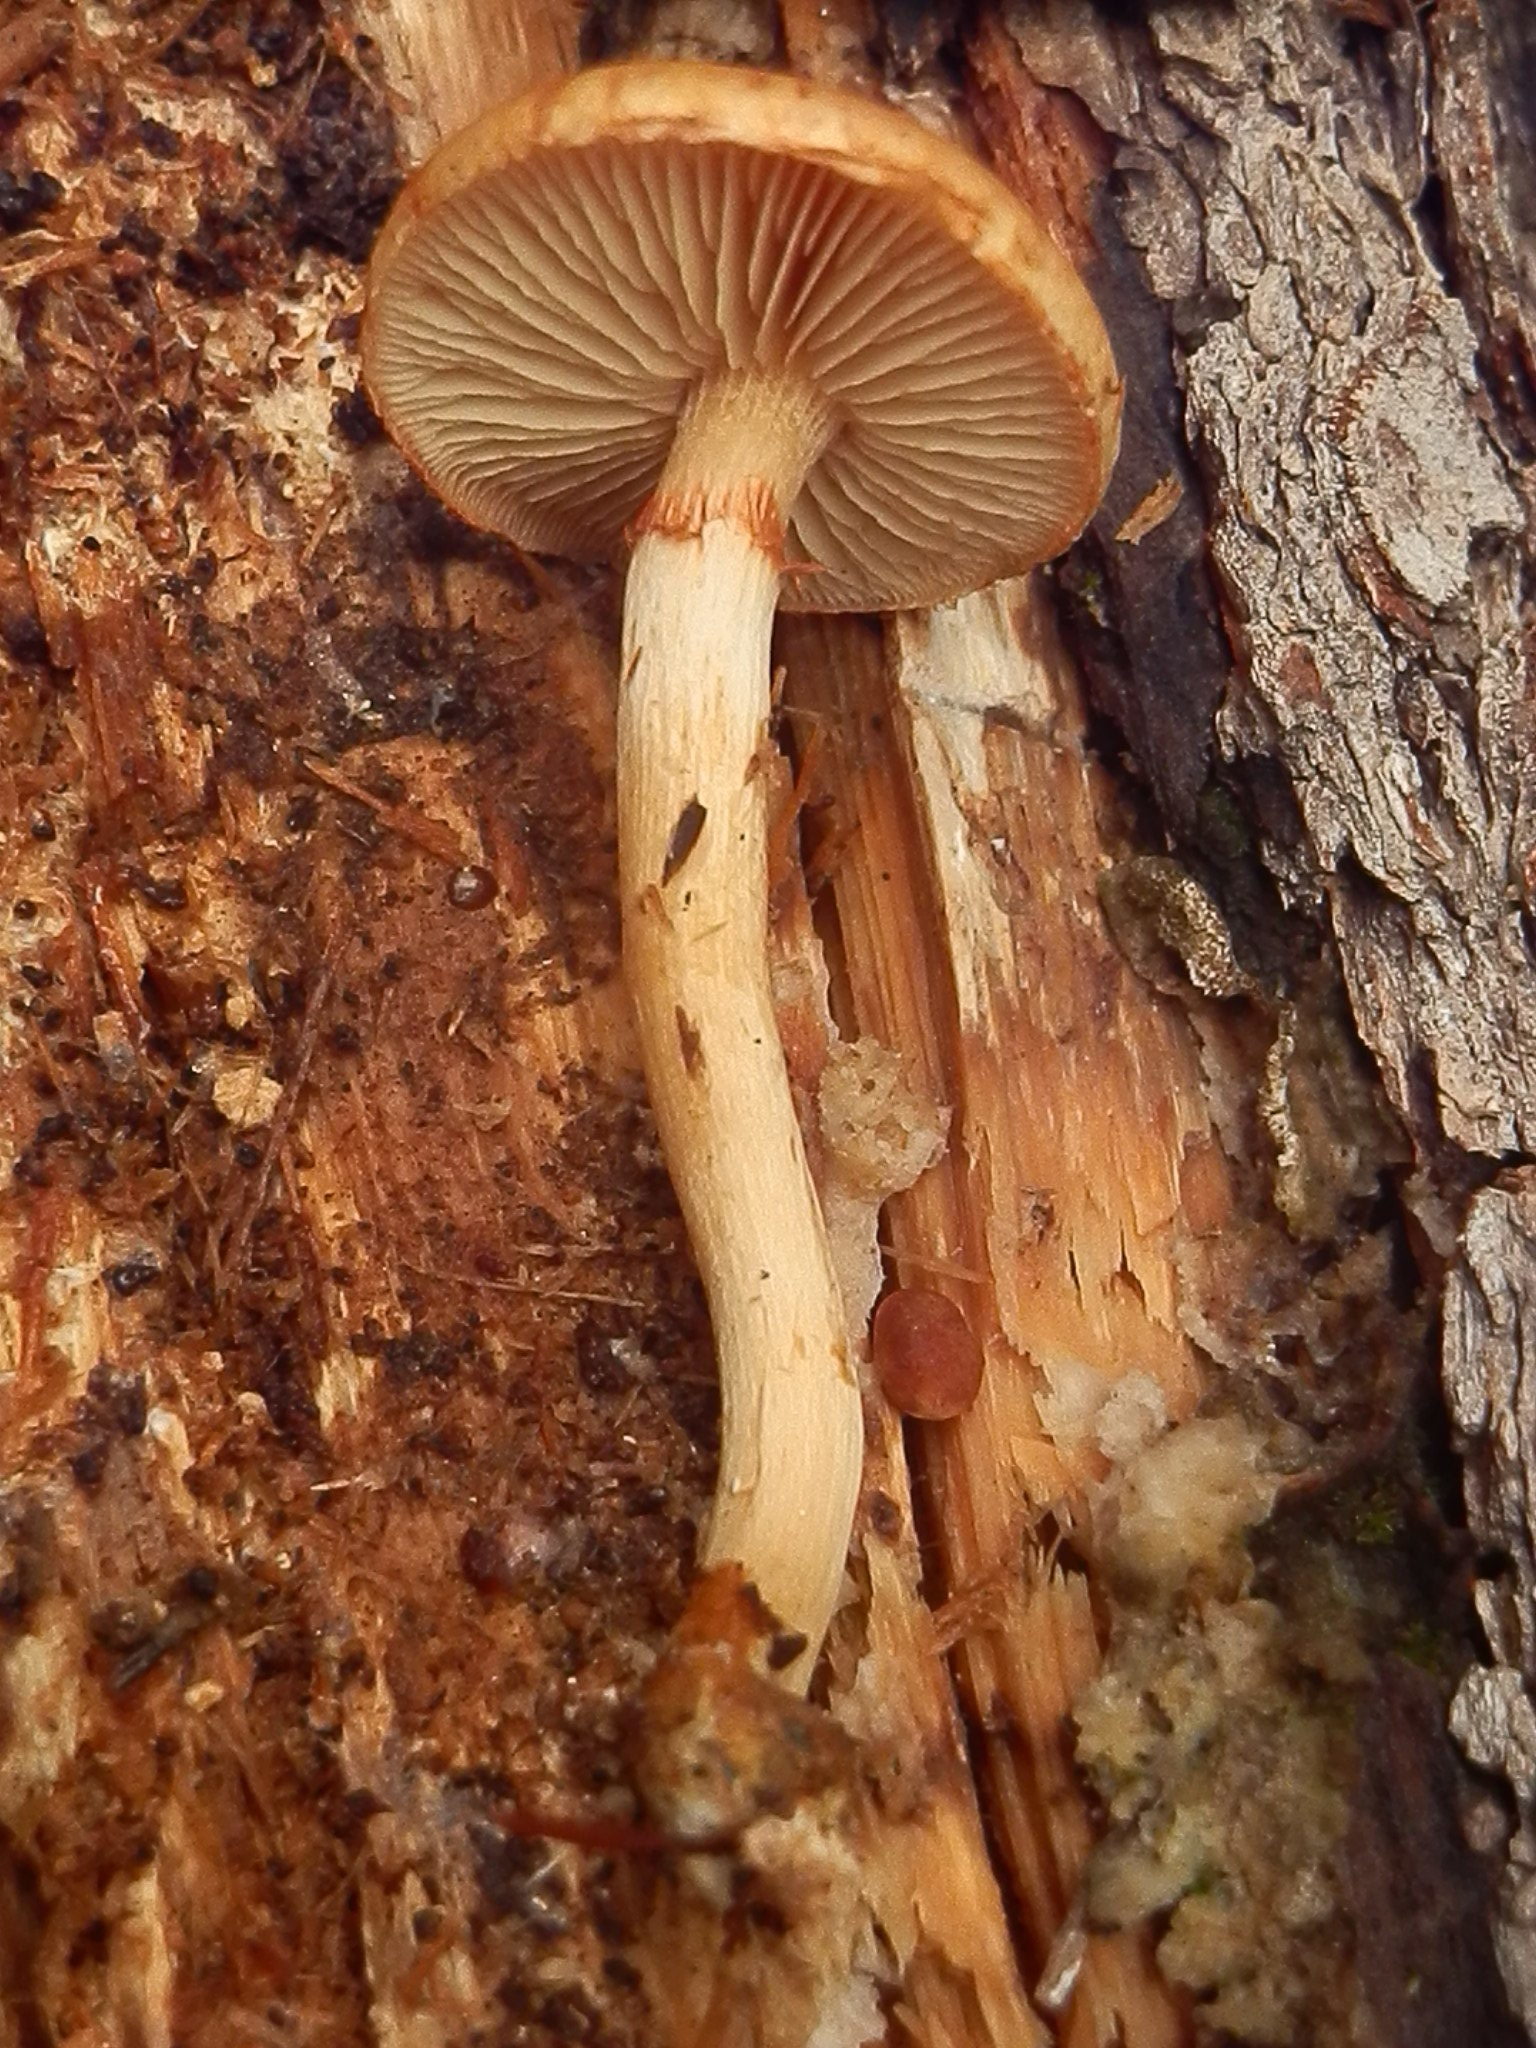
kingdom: Fungi
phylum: Basidiomycota
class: Agaricomycetes
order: Agaricales
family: Hymenogastraceae
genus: Gymnopilus
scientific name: Gymnopilus suberis
